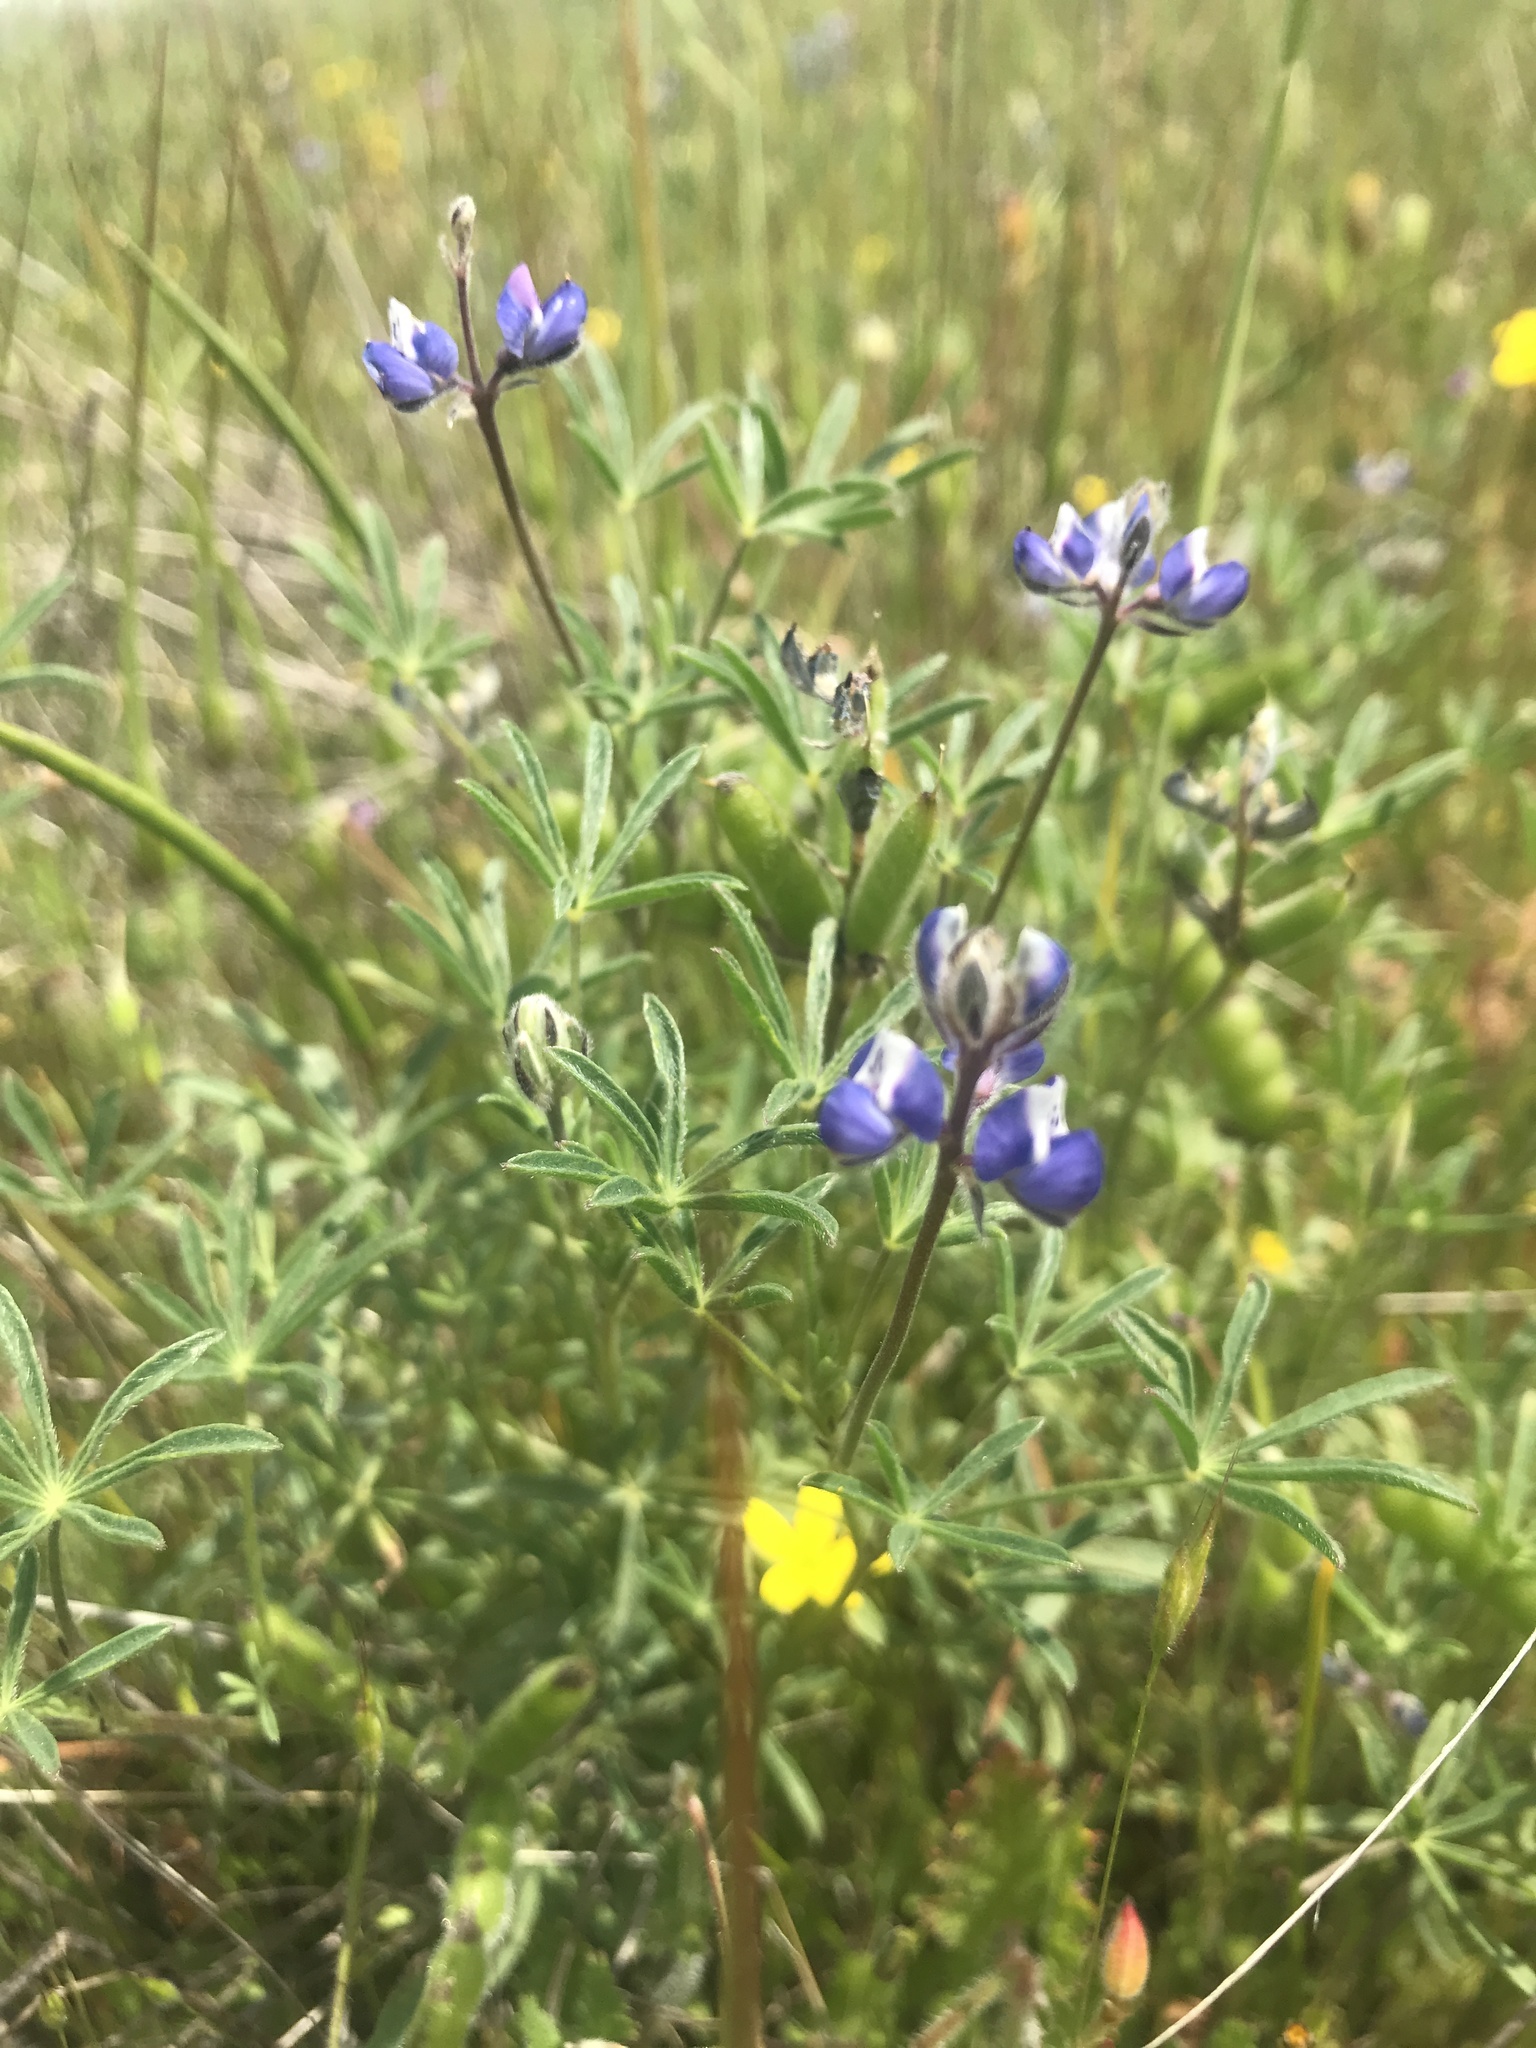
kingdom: Plantae
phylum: Tracheophyta
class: Magnoliopsida
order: Fabales
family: Fabaceae
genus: Lupinus
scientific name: Lupinus bicolor
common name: Miniature lupine
